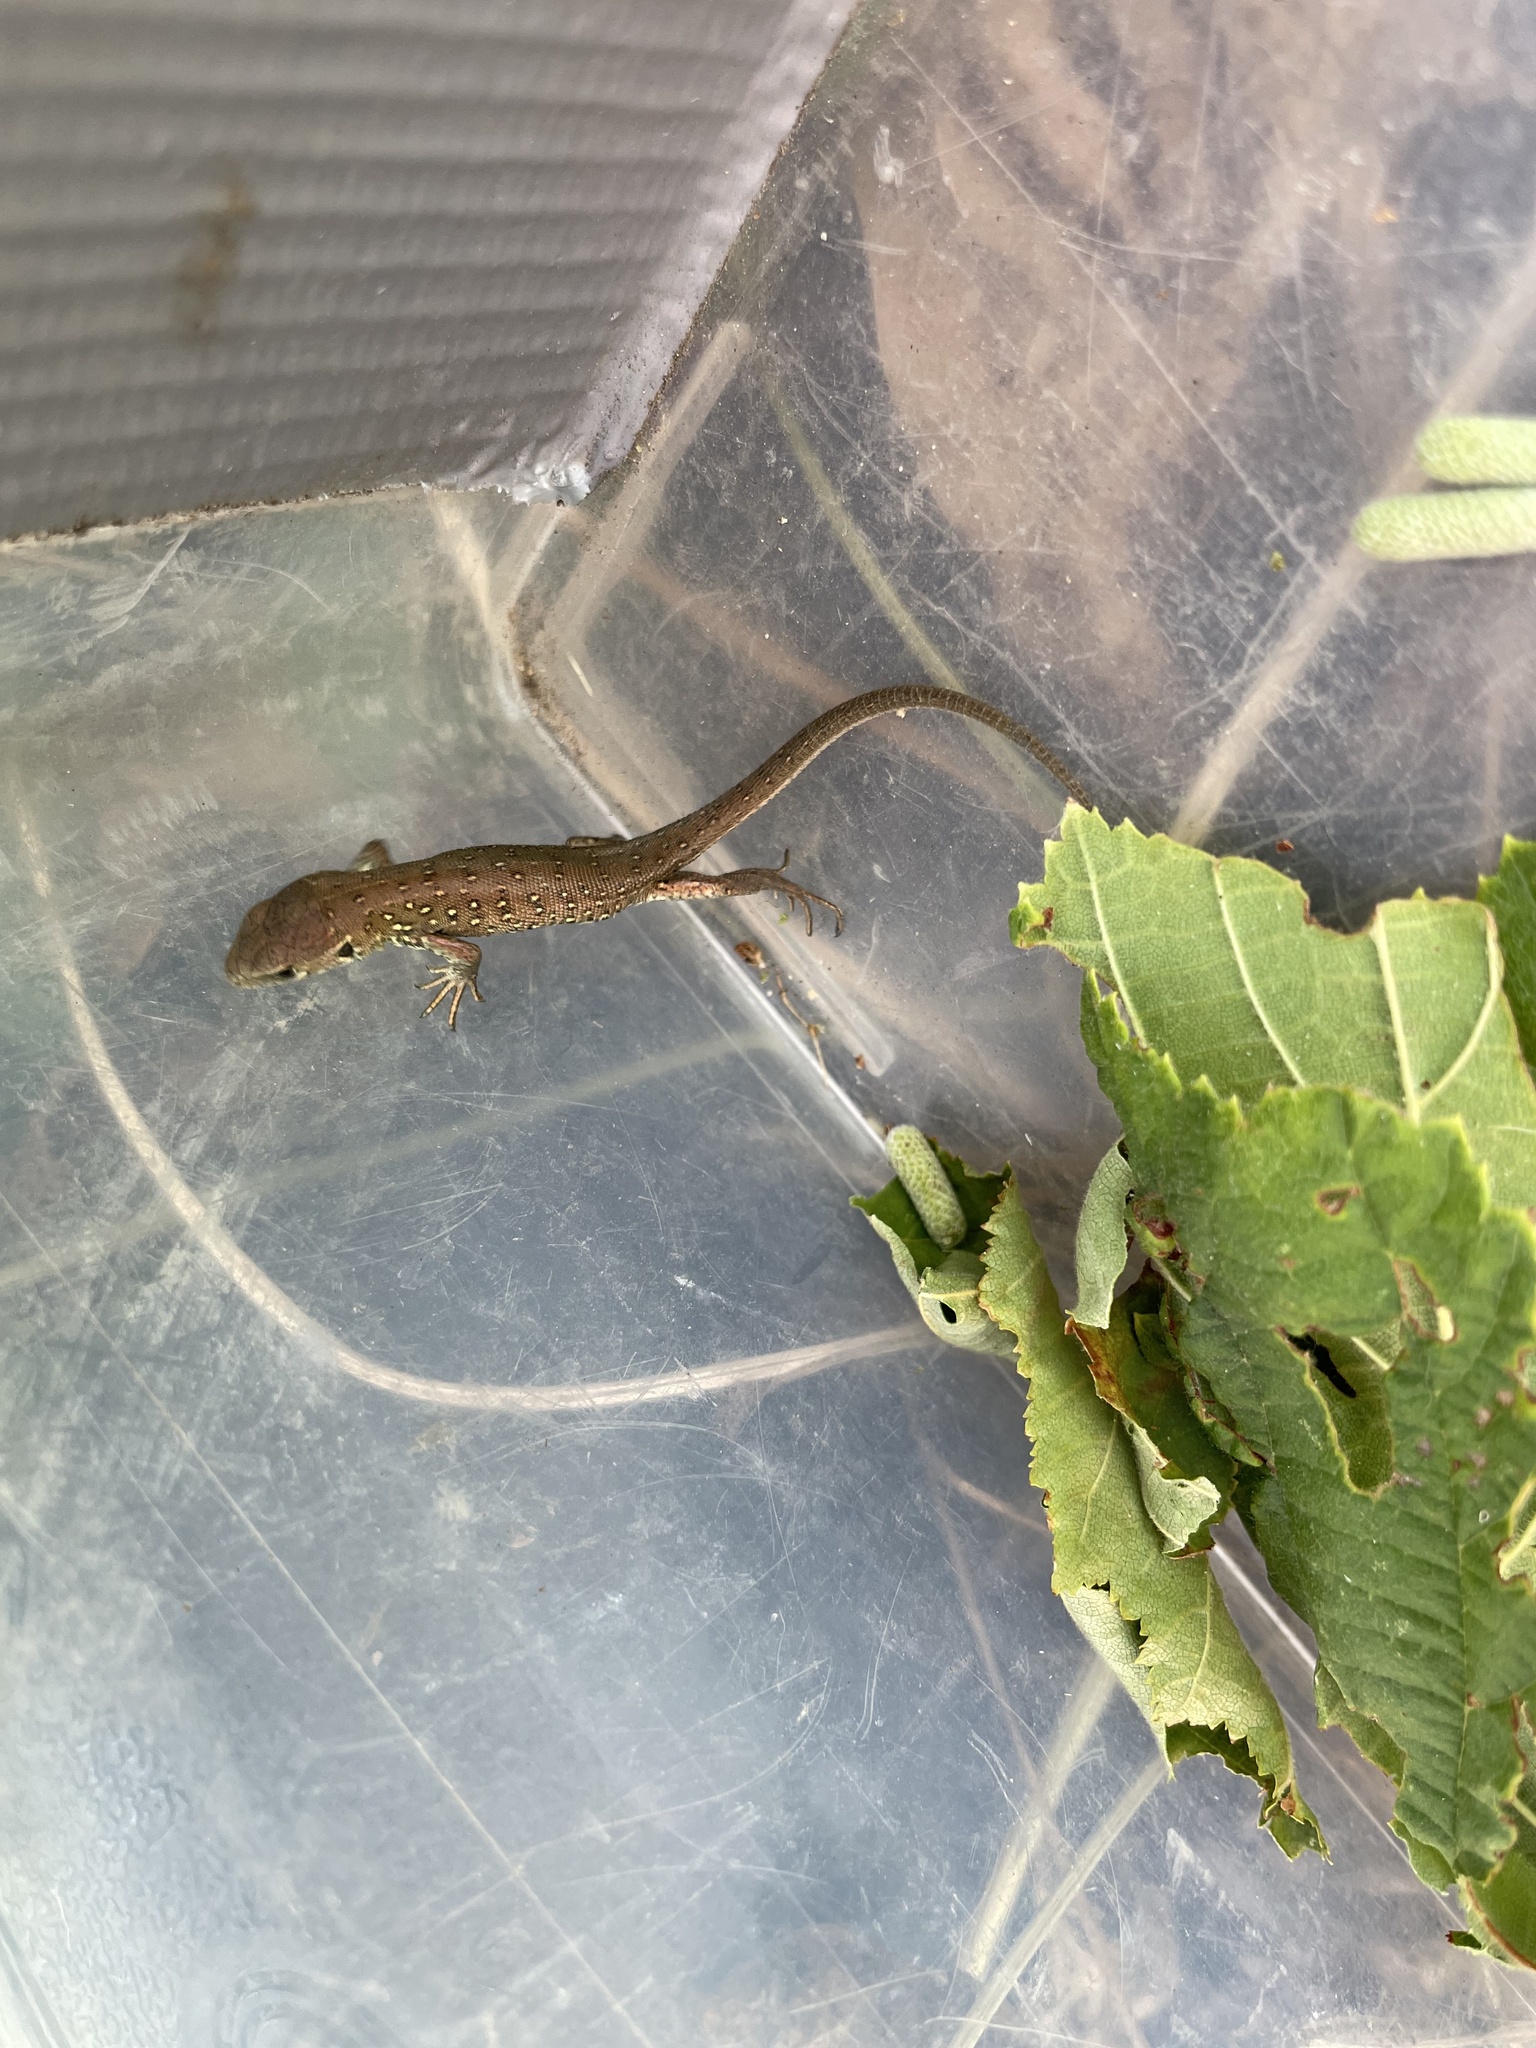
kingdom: Animalia
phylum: Chordata
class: Squamata
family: Lacertidae
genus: Lacerta
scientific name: Lacerta agilis
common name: Sand lizard
